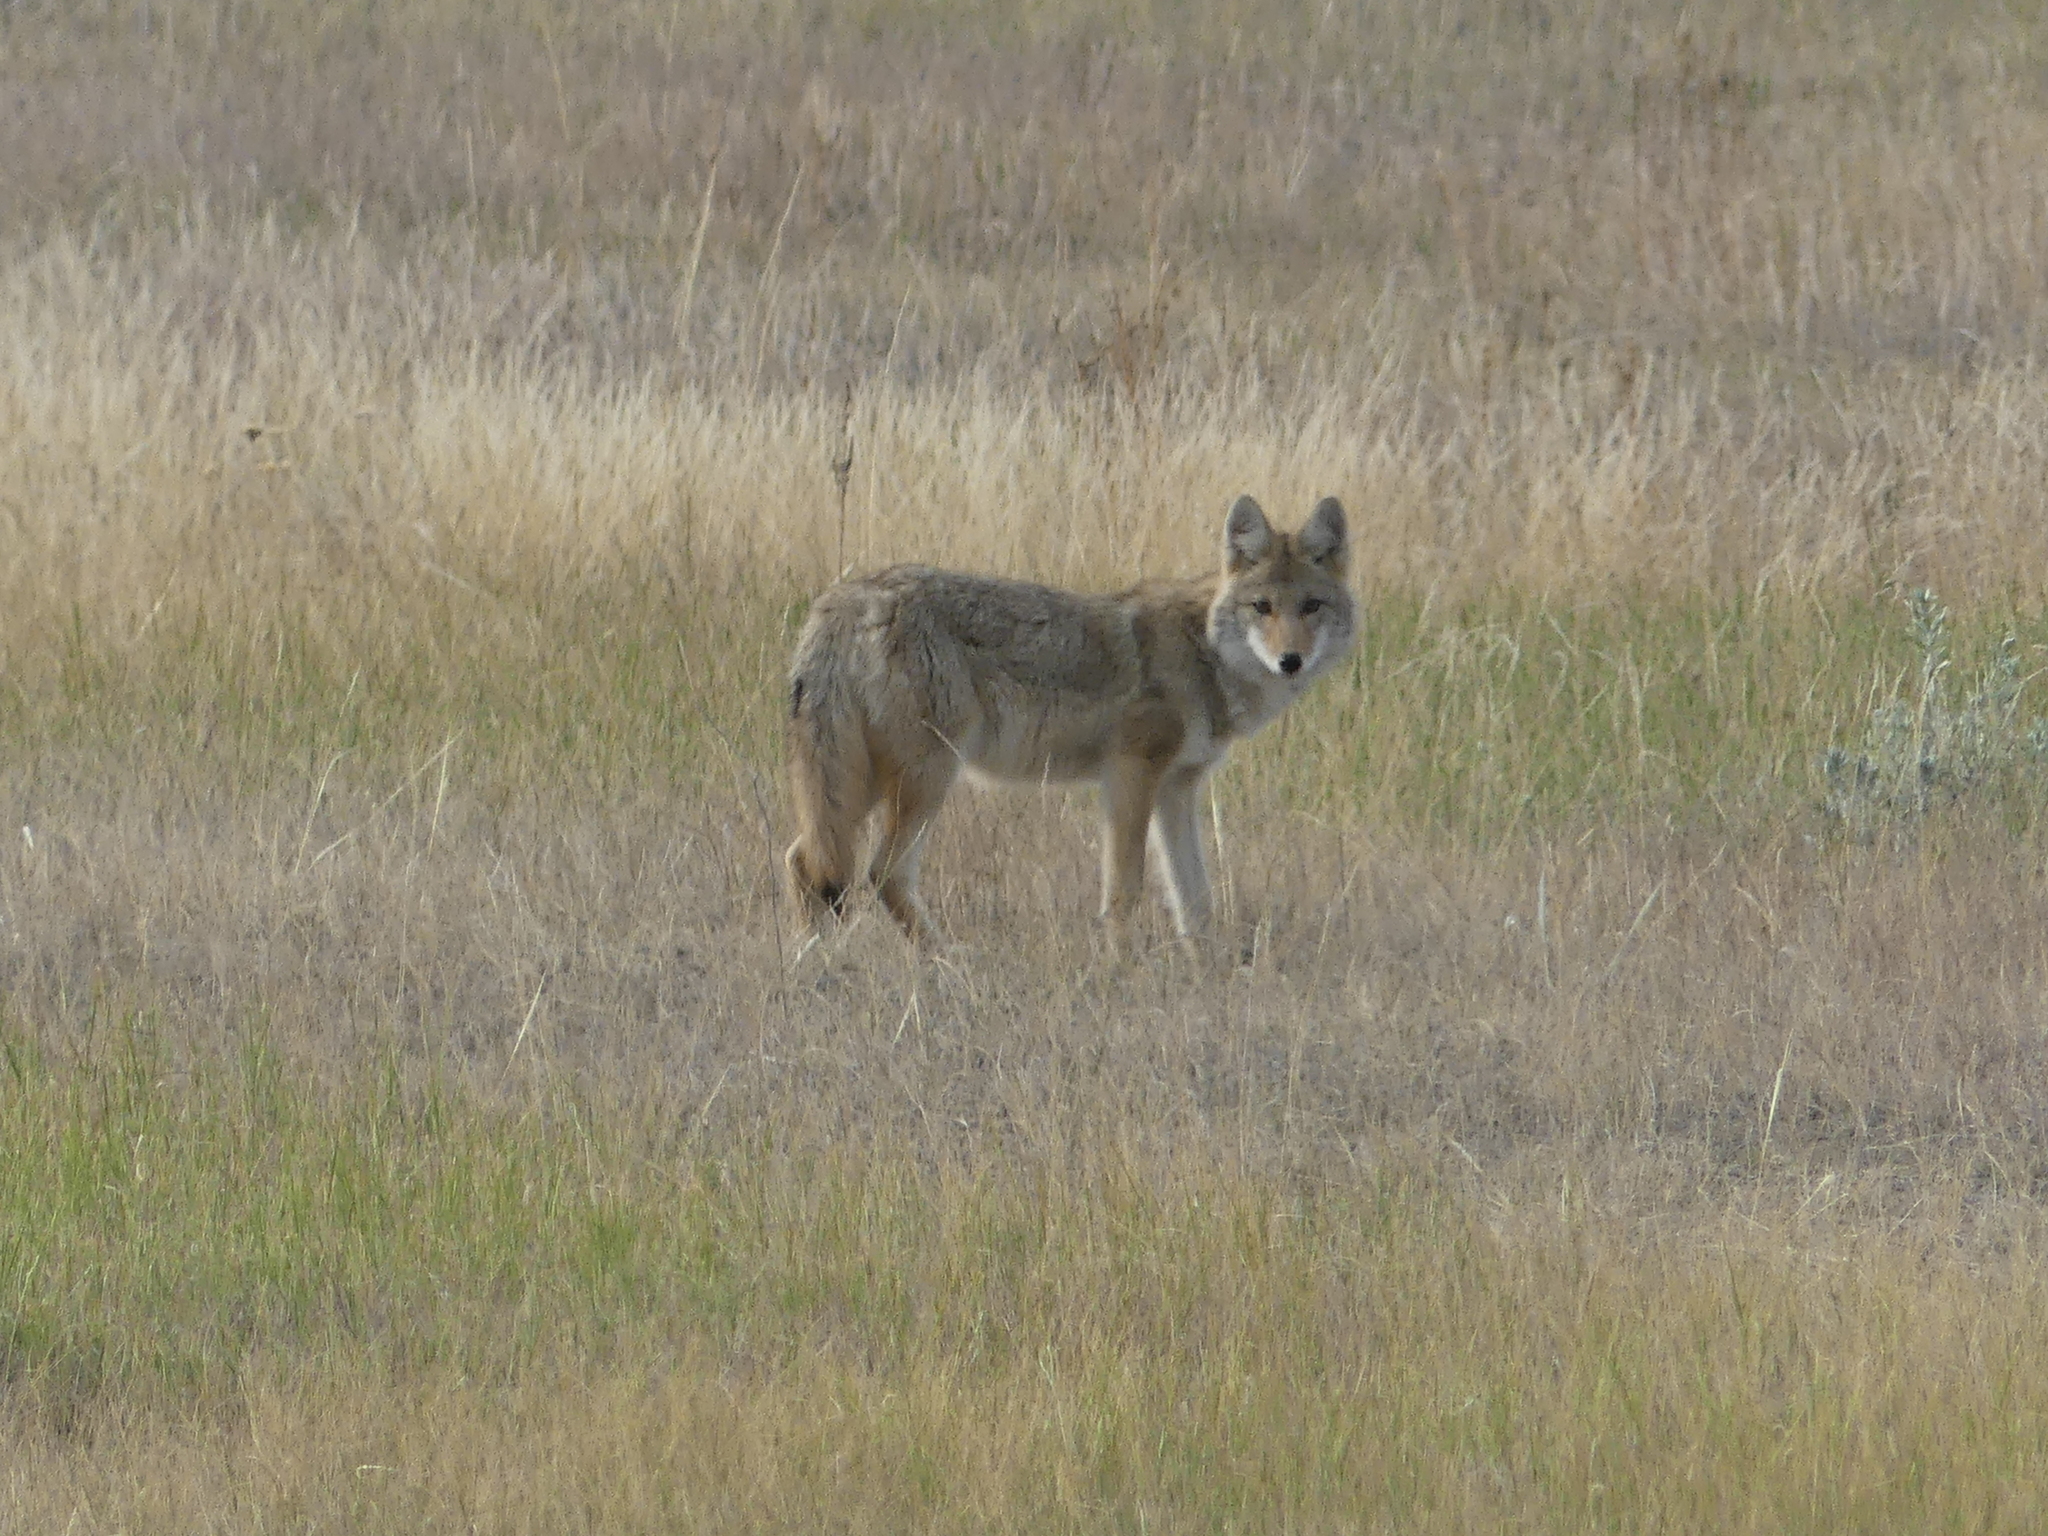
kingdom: Animalia
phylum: Chordata
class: Mammalia
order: Carnivora
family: Canidae
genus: Canis
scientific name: Canis latrans
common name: Coyote
